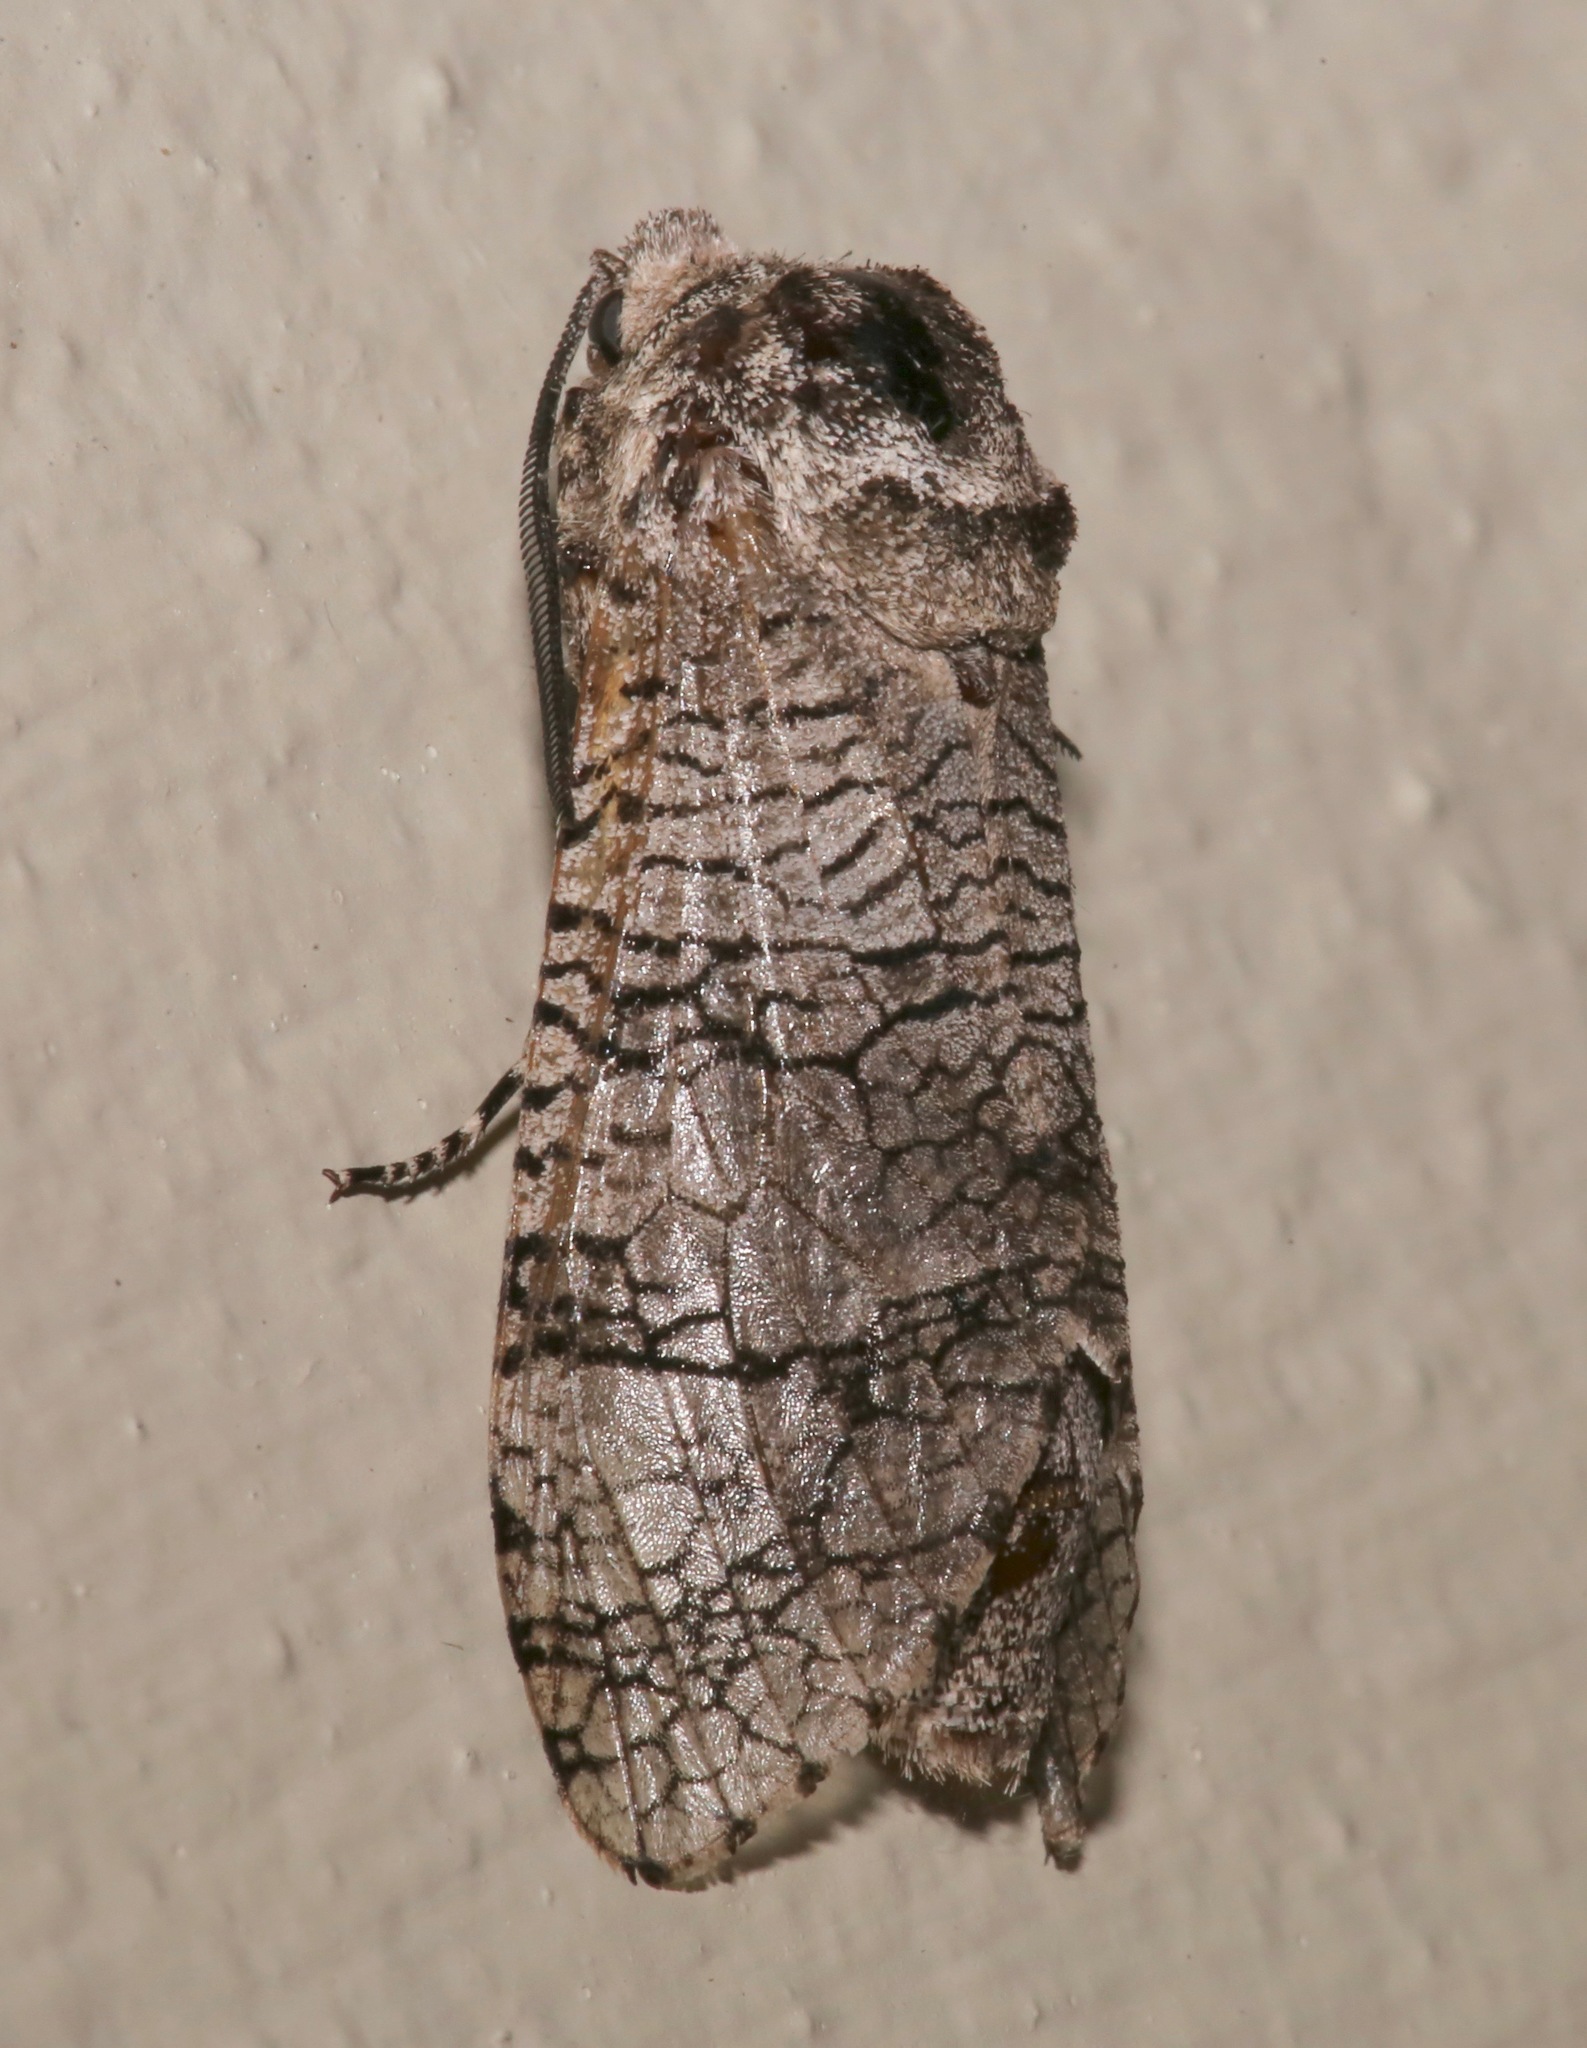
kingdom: Animalia
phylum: Arthropoda
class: Insecta
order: Lepidoptera
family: Cossidae
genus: Prionoxystus
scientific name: Prionoxystus macmurtrei
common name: Little carpenterworm
